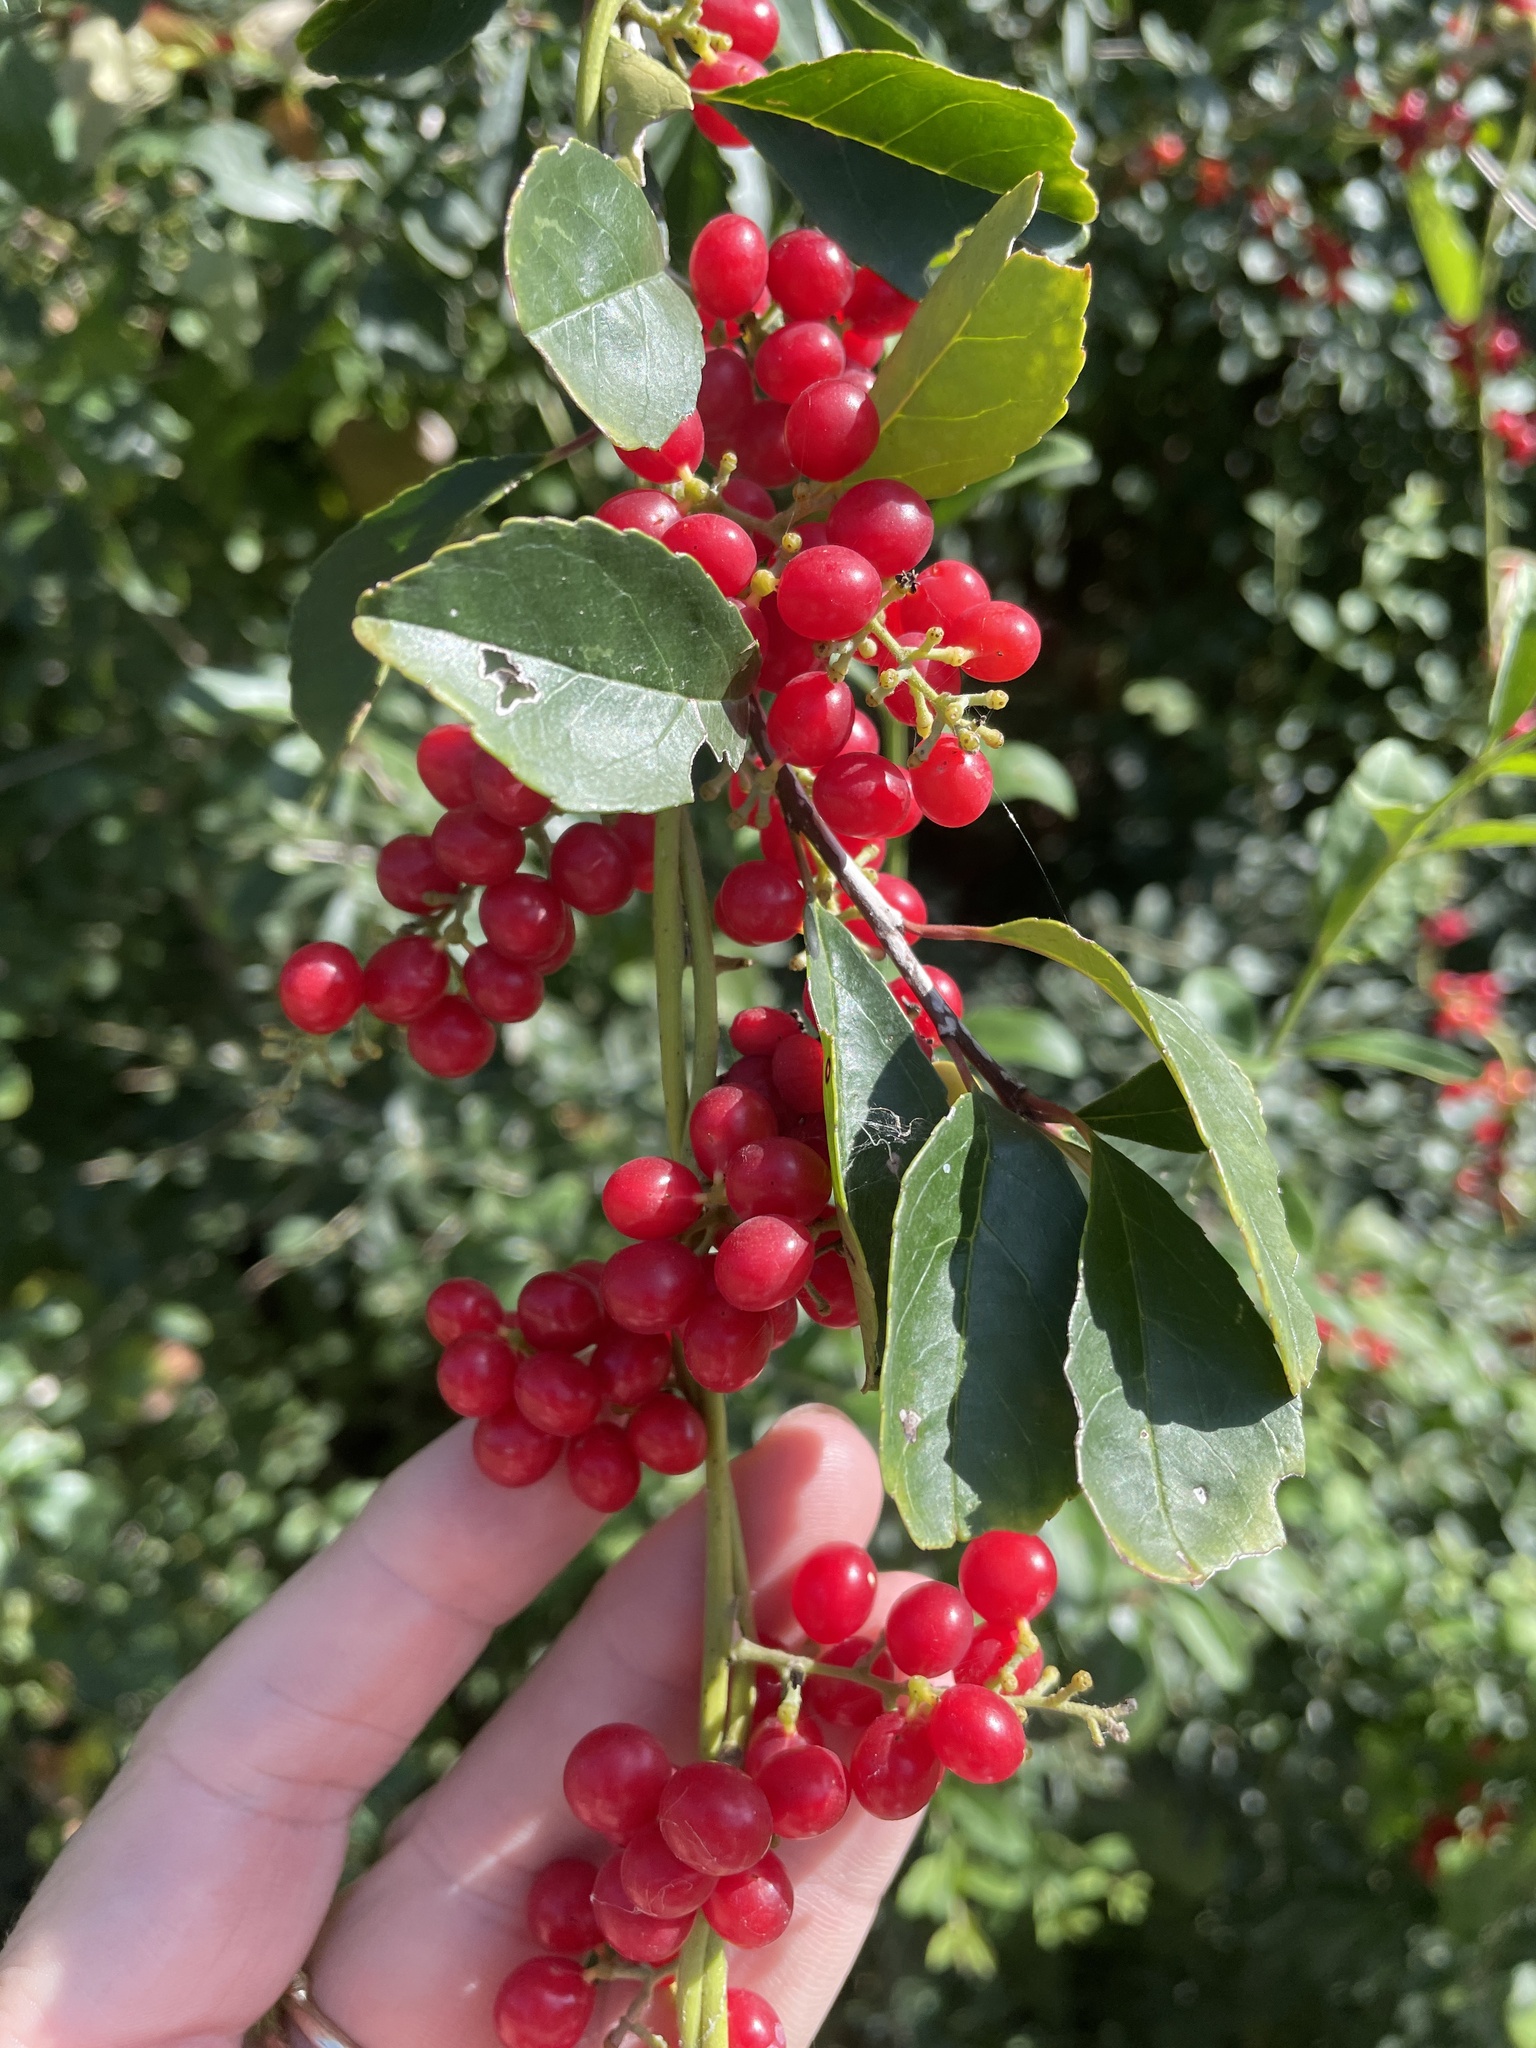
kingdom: Plantae
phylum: Tracheophyta
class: Magnoliopsida
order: Ranunculales
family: Menispermaceae
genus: Cocculus
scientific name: Cocculus carolinus
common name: Carolina moonseed
